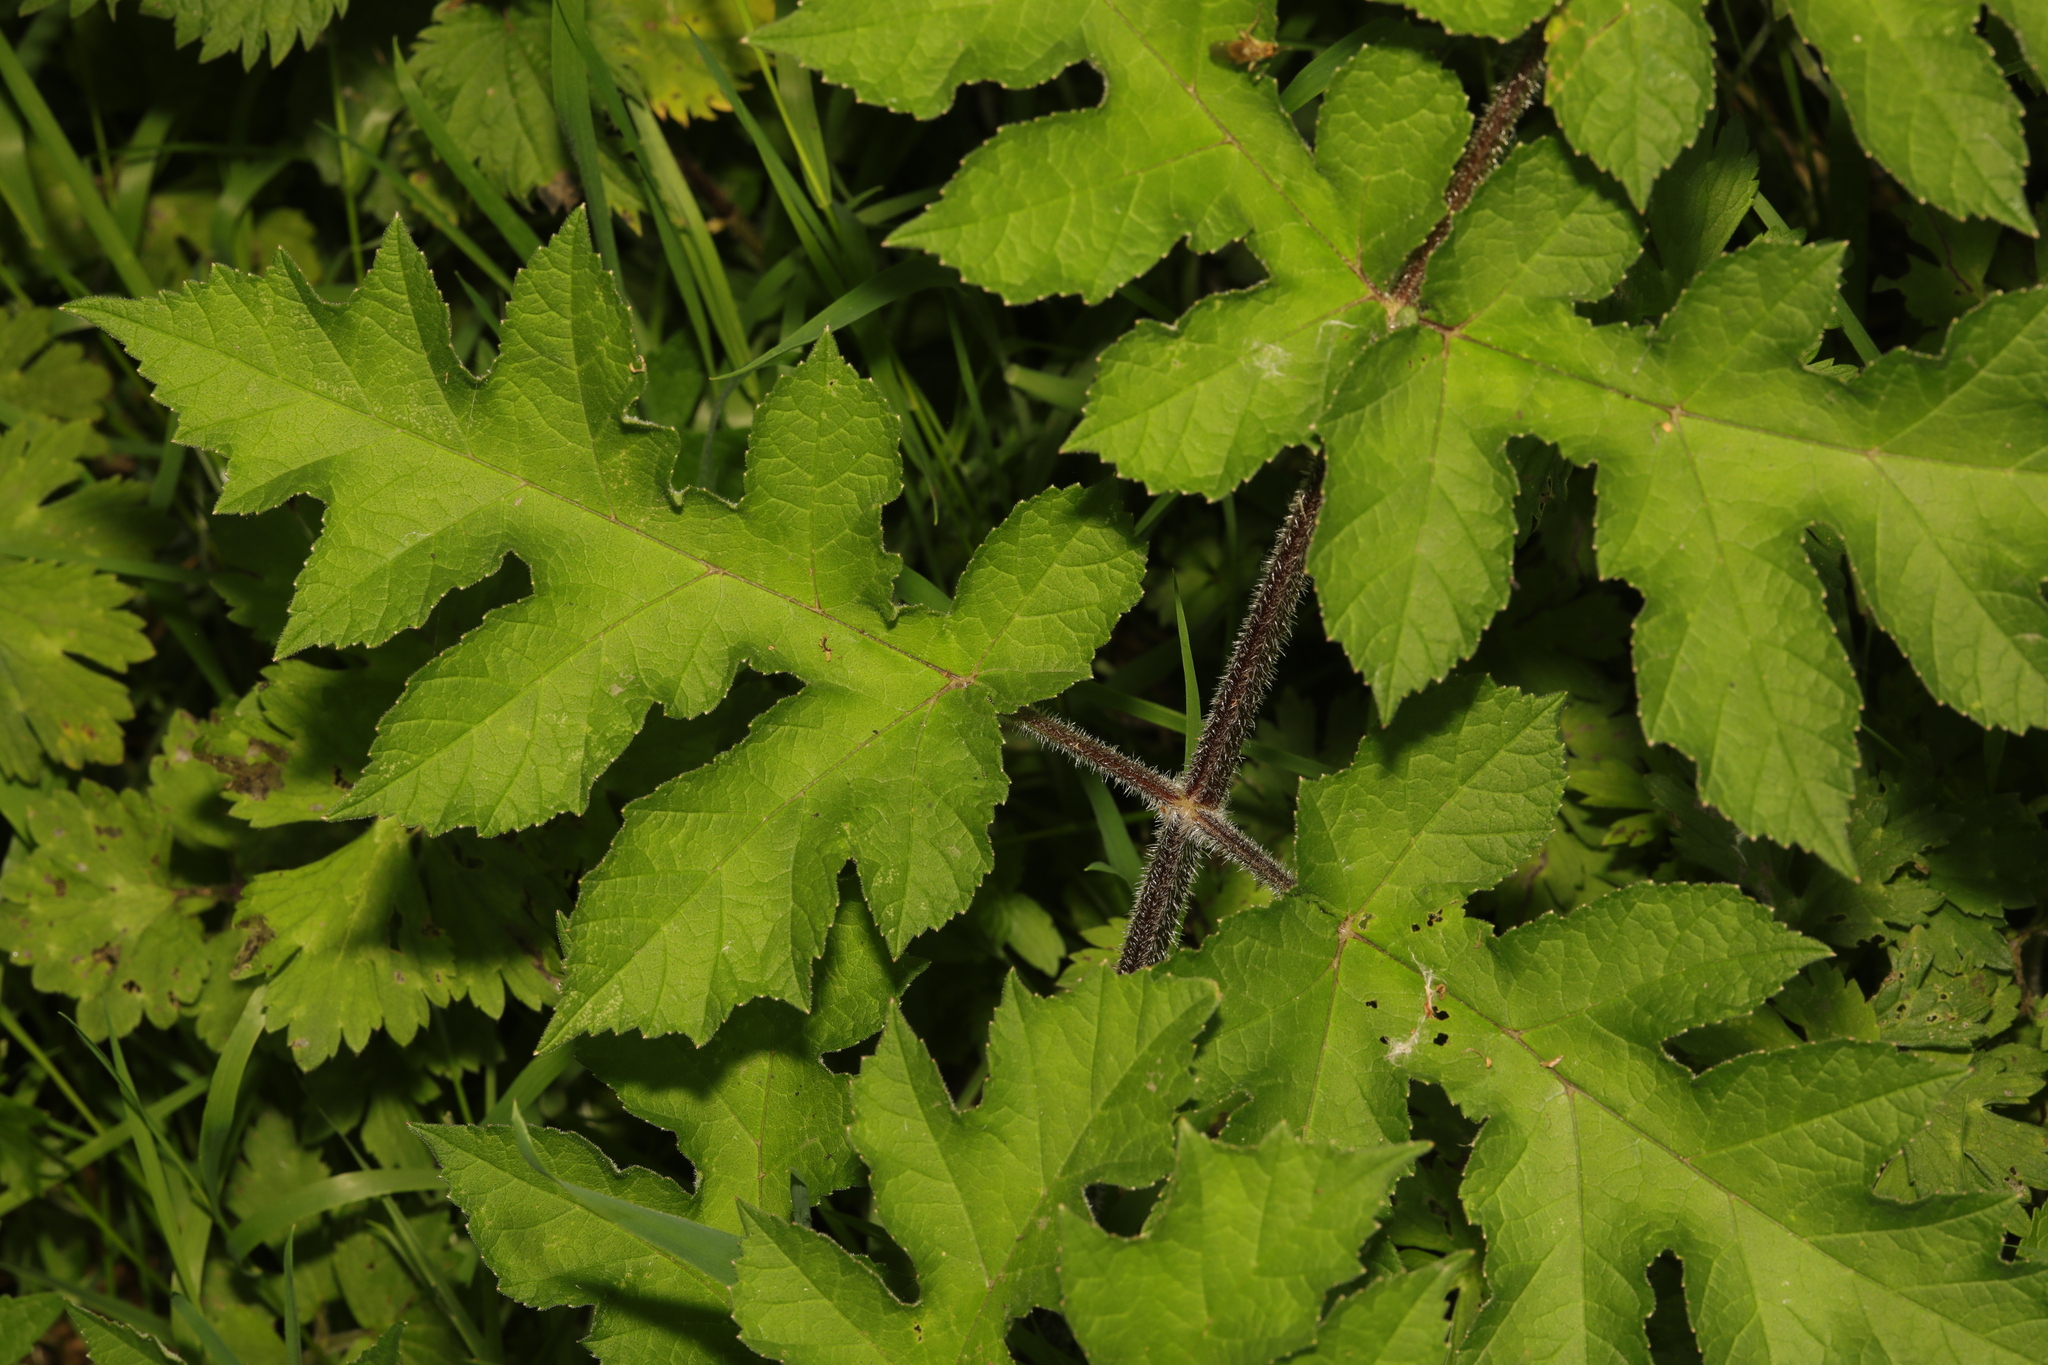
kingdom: Plantae
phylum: Tracheophyta
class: Magnoliopsida
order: Apiales
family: Apiaceae
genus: Heracleum
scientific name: Heracleum sphondylium
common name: Hogweed
